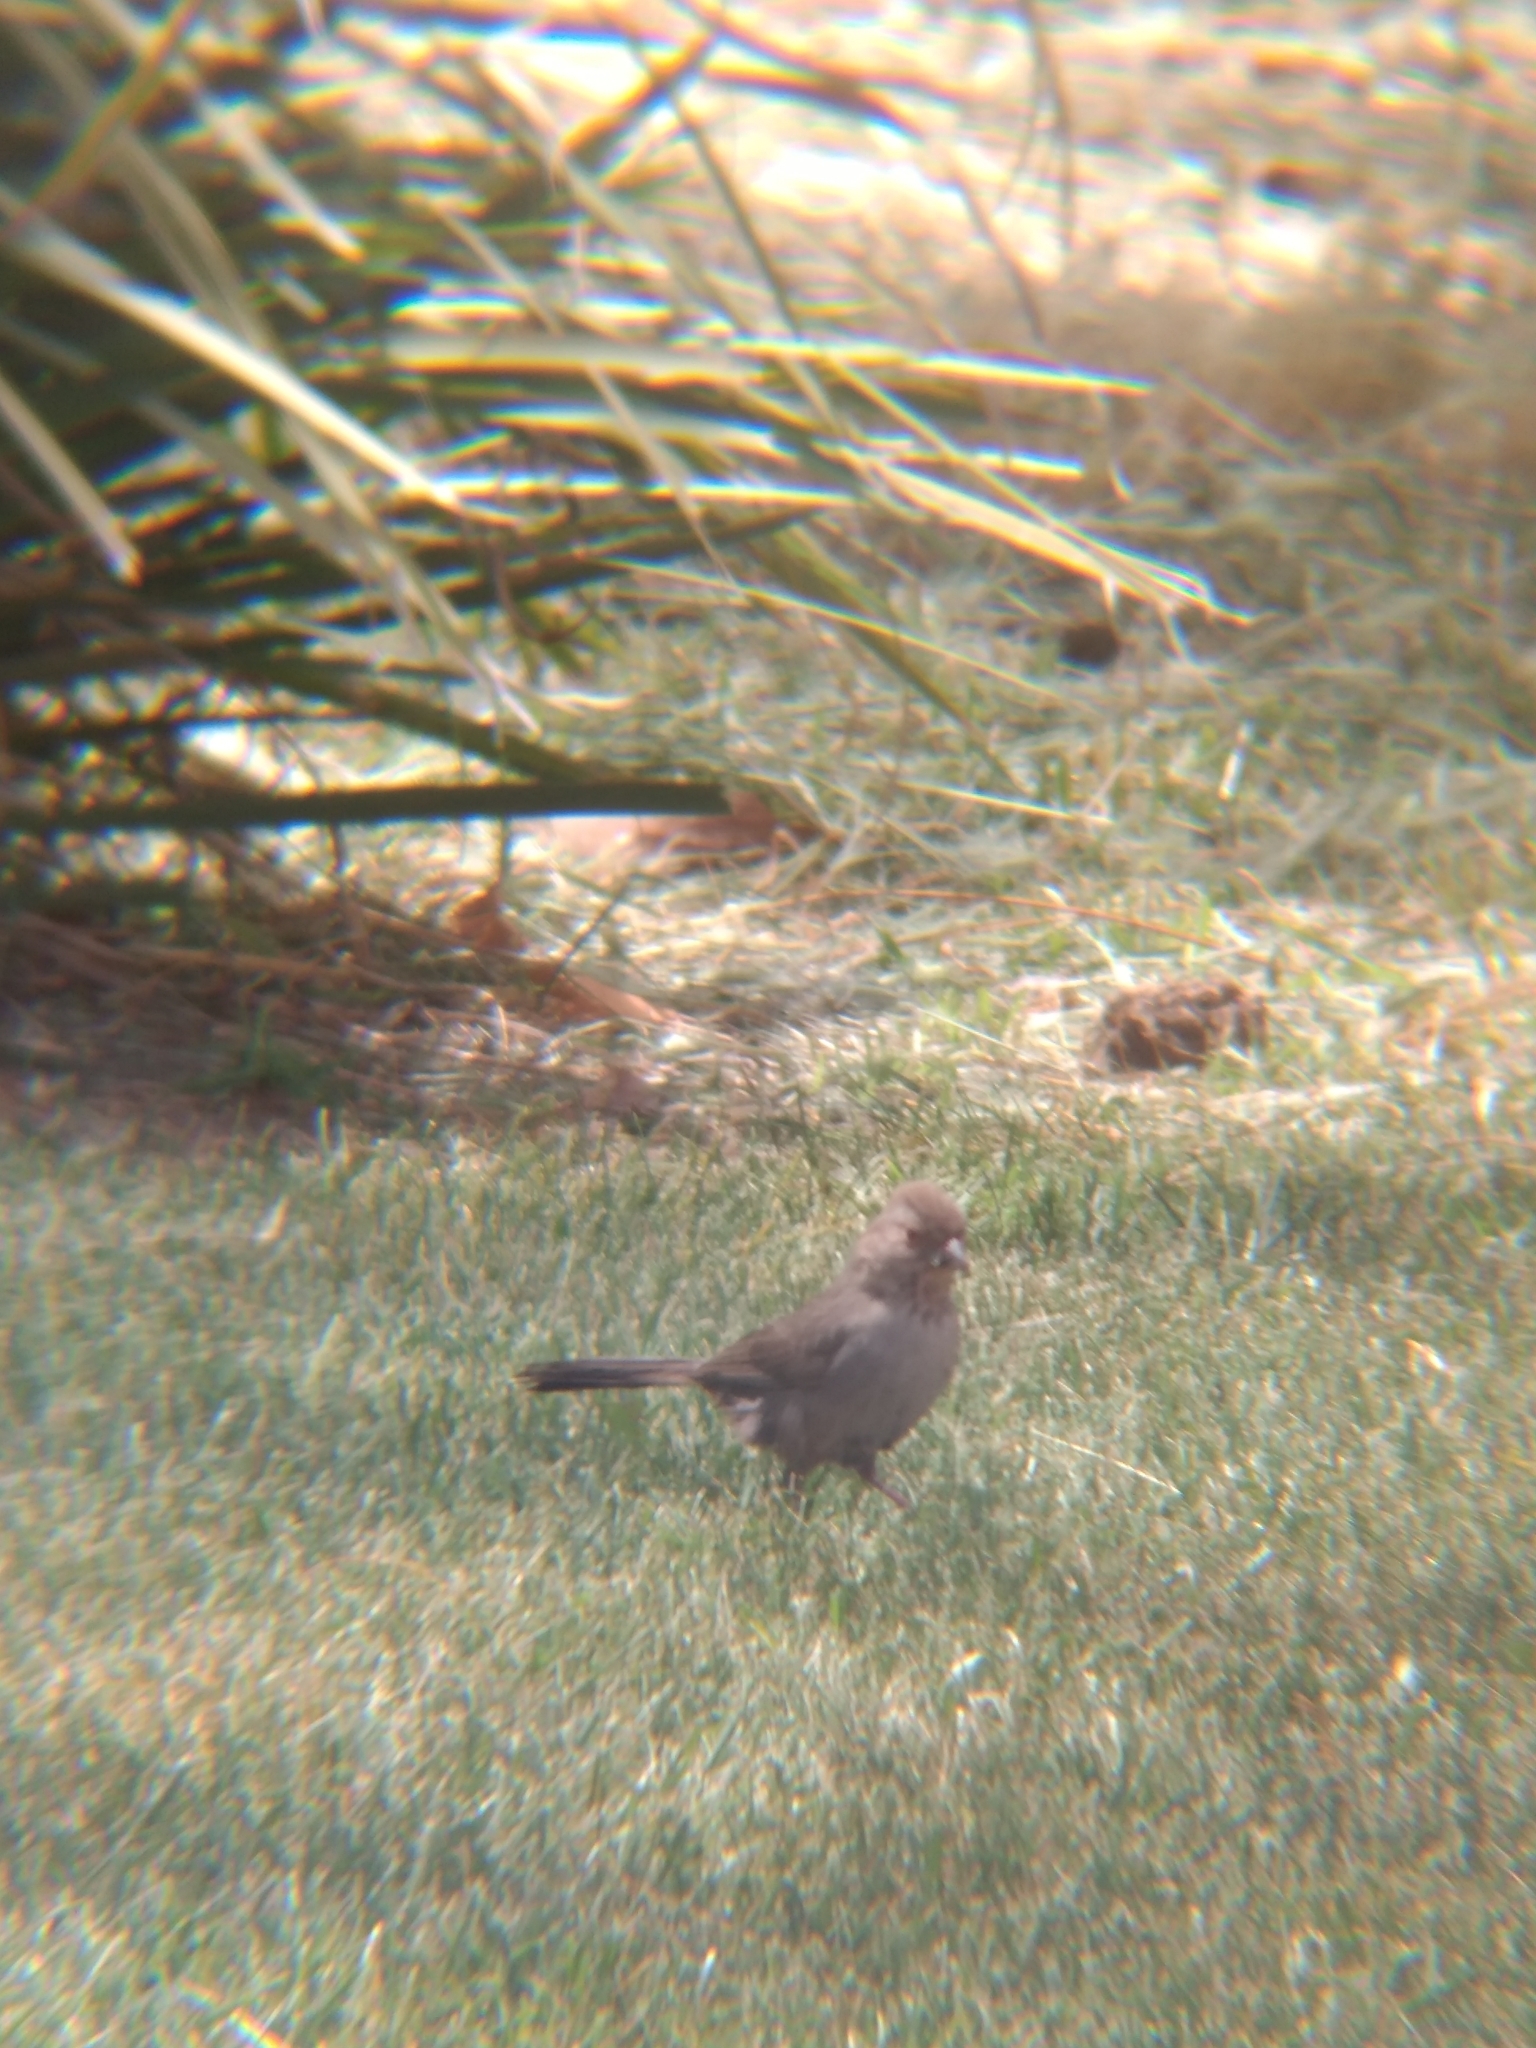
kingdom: Animalia
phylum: Chordata
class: Aves
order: Passeriformes
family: Passerellidae
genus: Melozone
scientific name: Melozone crissalis
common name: California towhee
